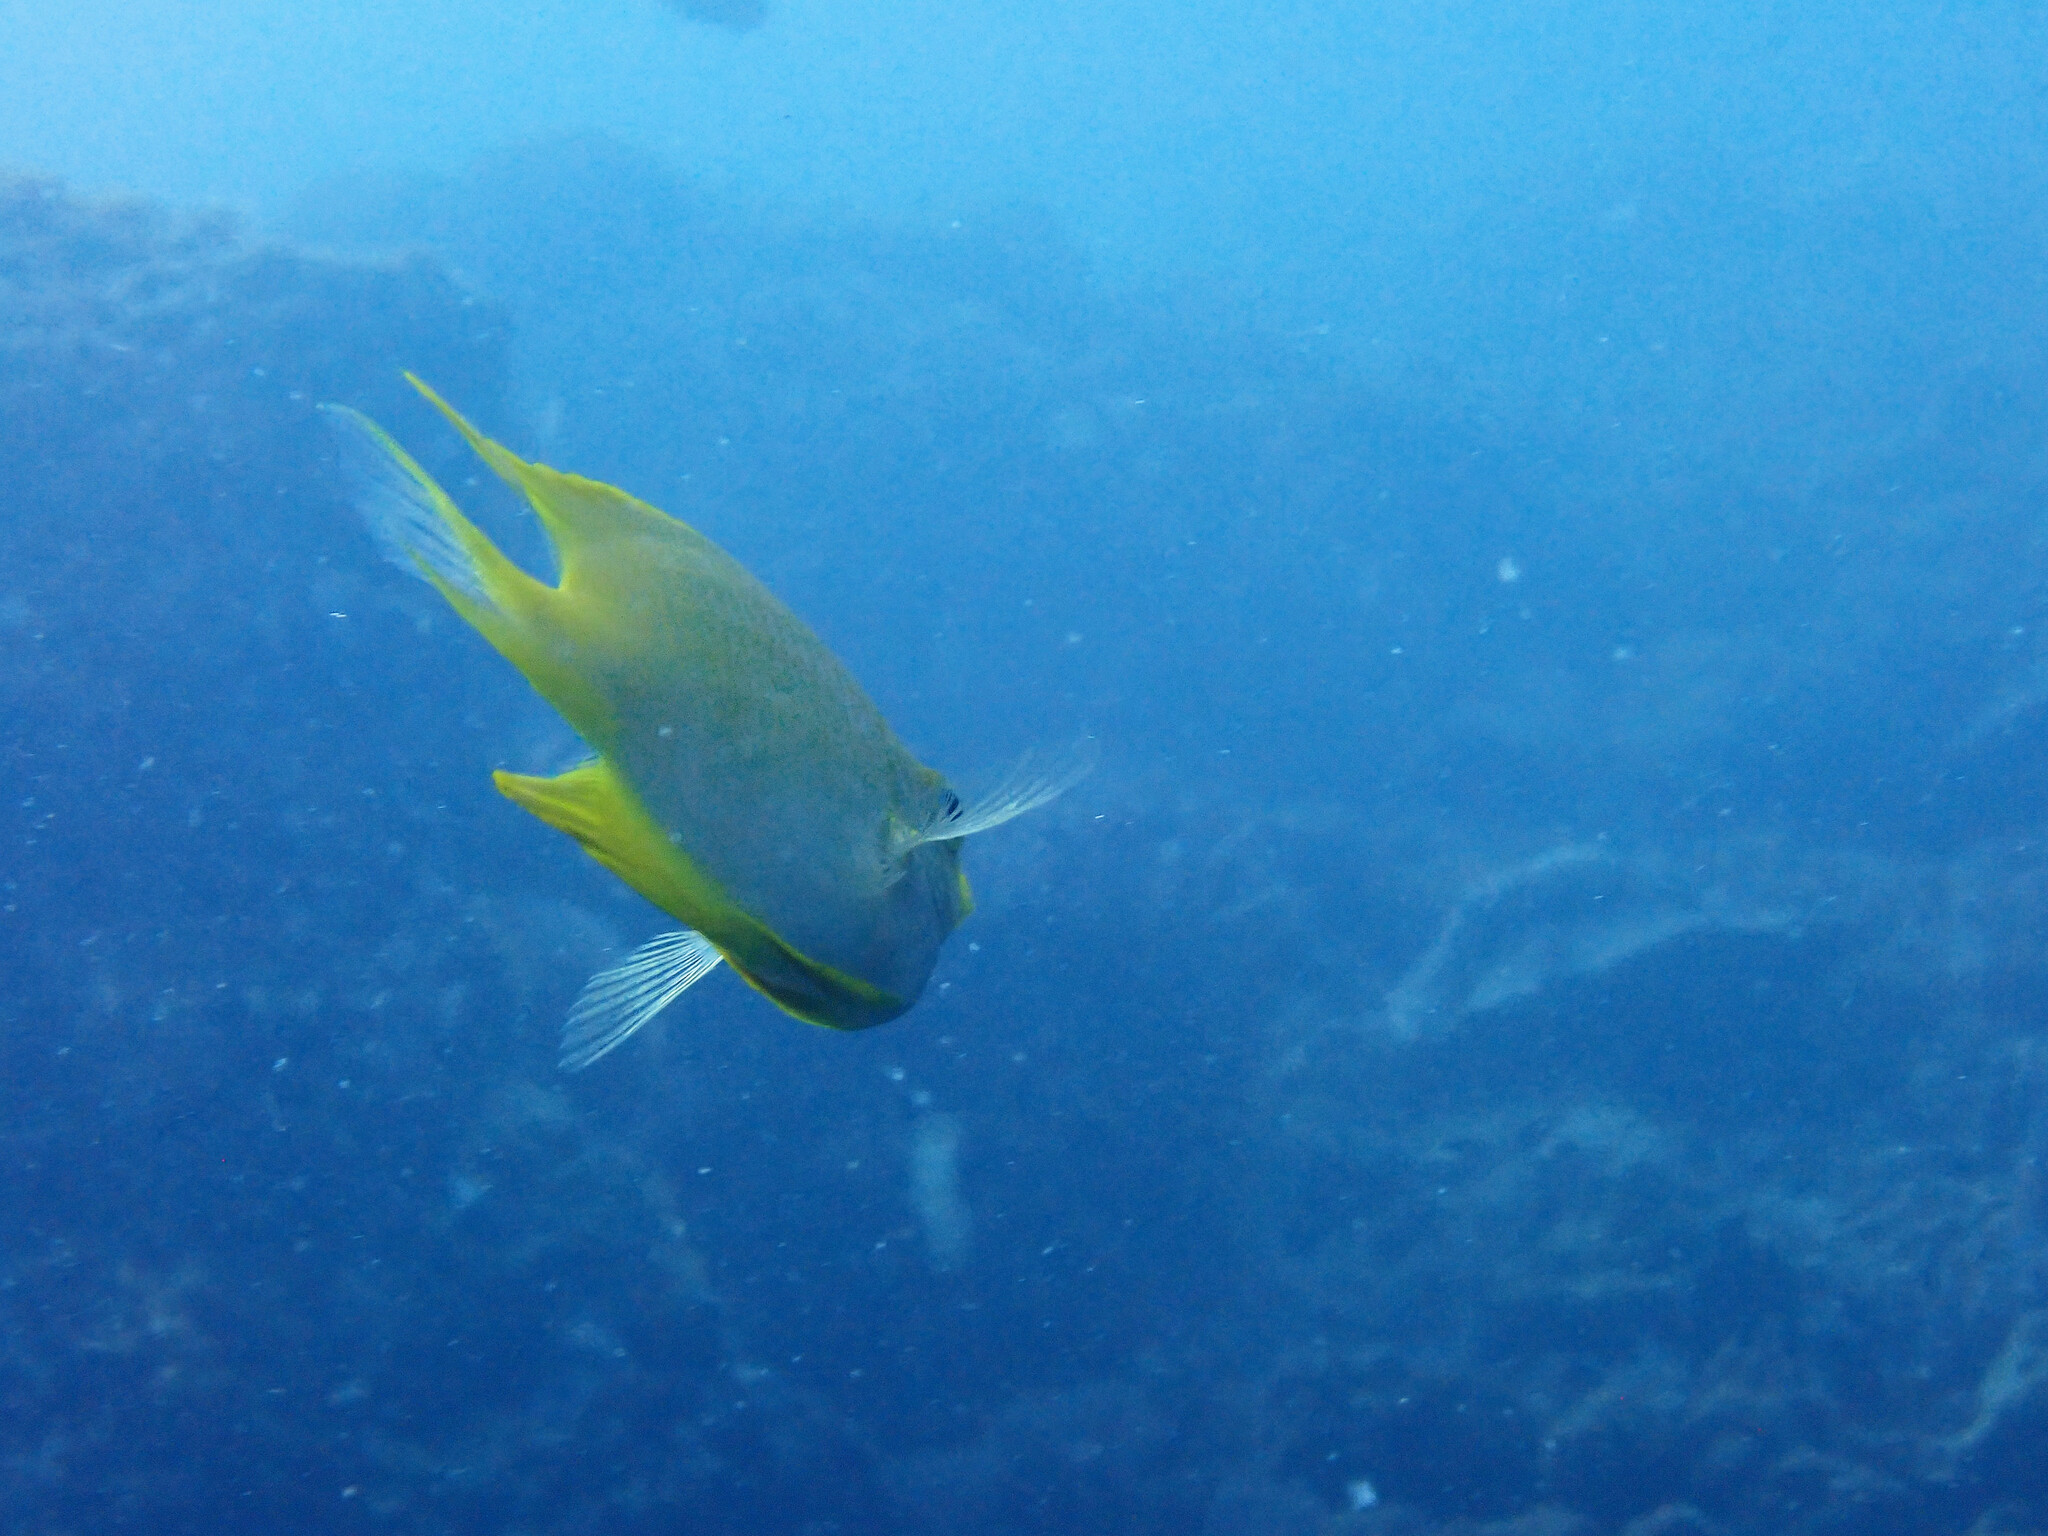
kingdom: Animalia
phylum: Chordata
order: Perciformes
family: Pomacentridae
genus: Amblyglyphidodon
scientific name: Amblyglyphidodon aureus
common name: Golden damsel
